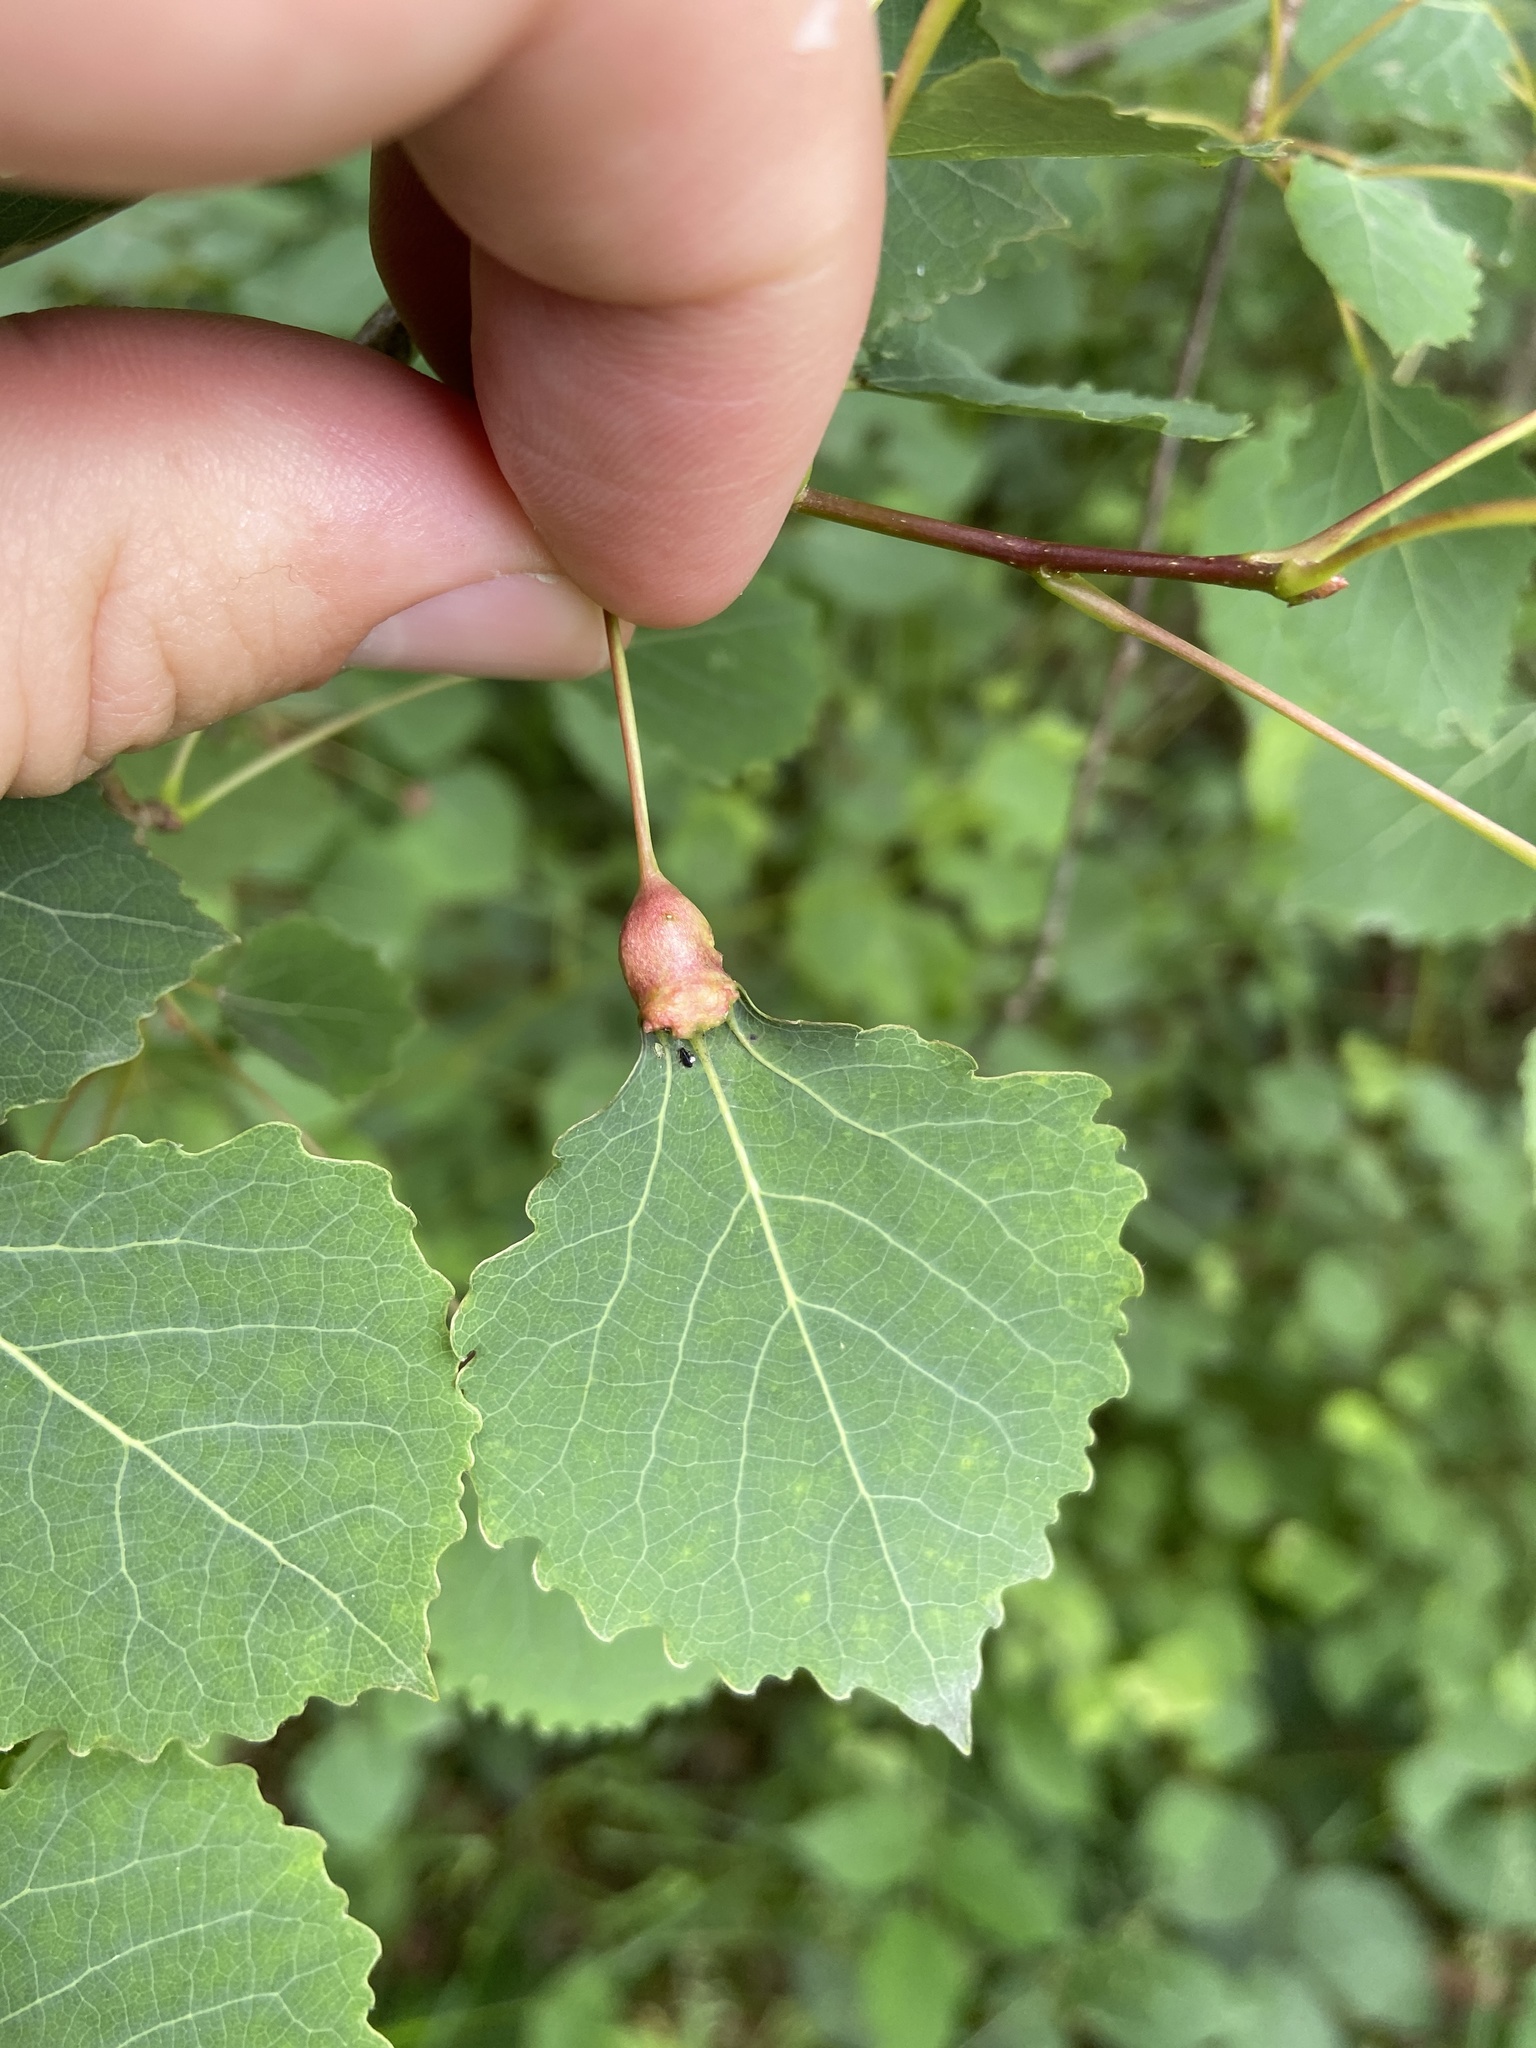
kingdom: Animalia
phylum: Arthropoda
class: Insecta
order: Diptera
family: Cecidomyiidae
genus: Contarinia
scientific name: Contarinia petioli
